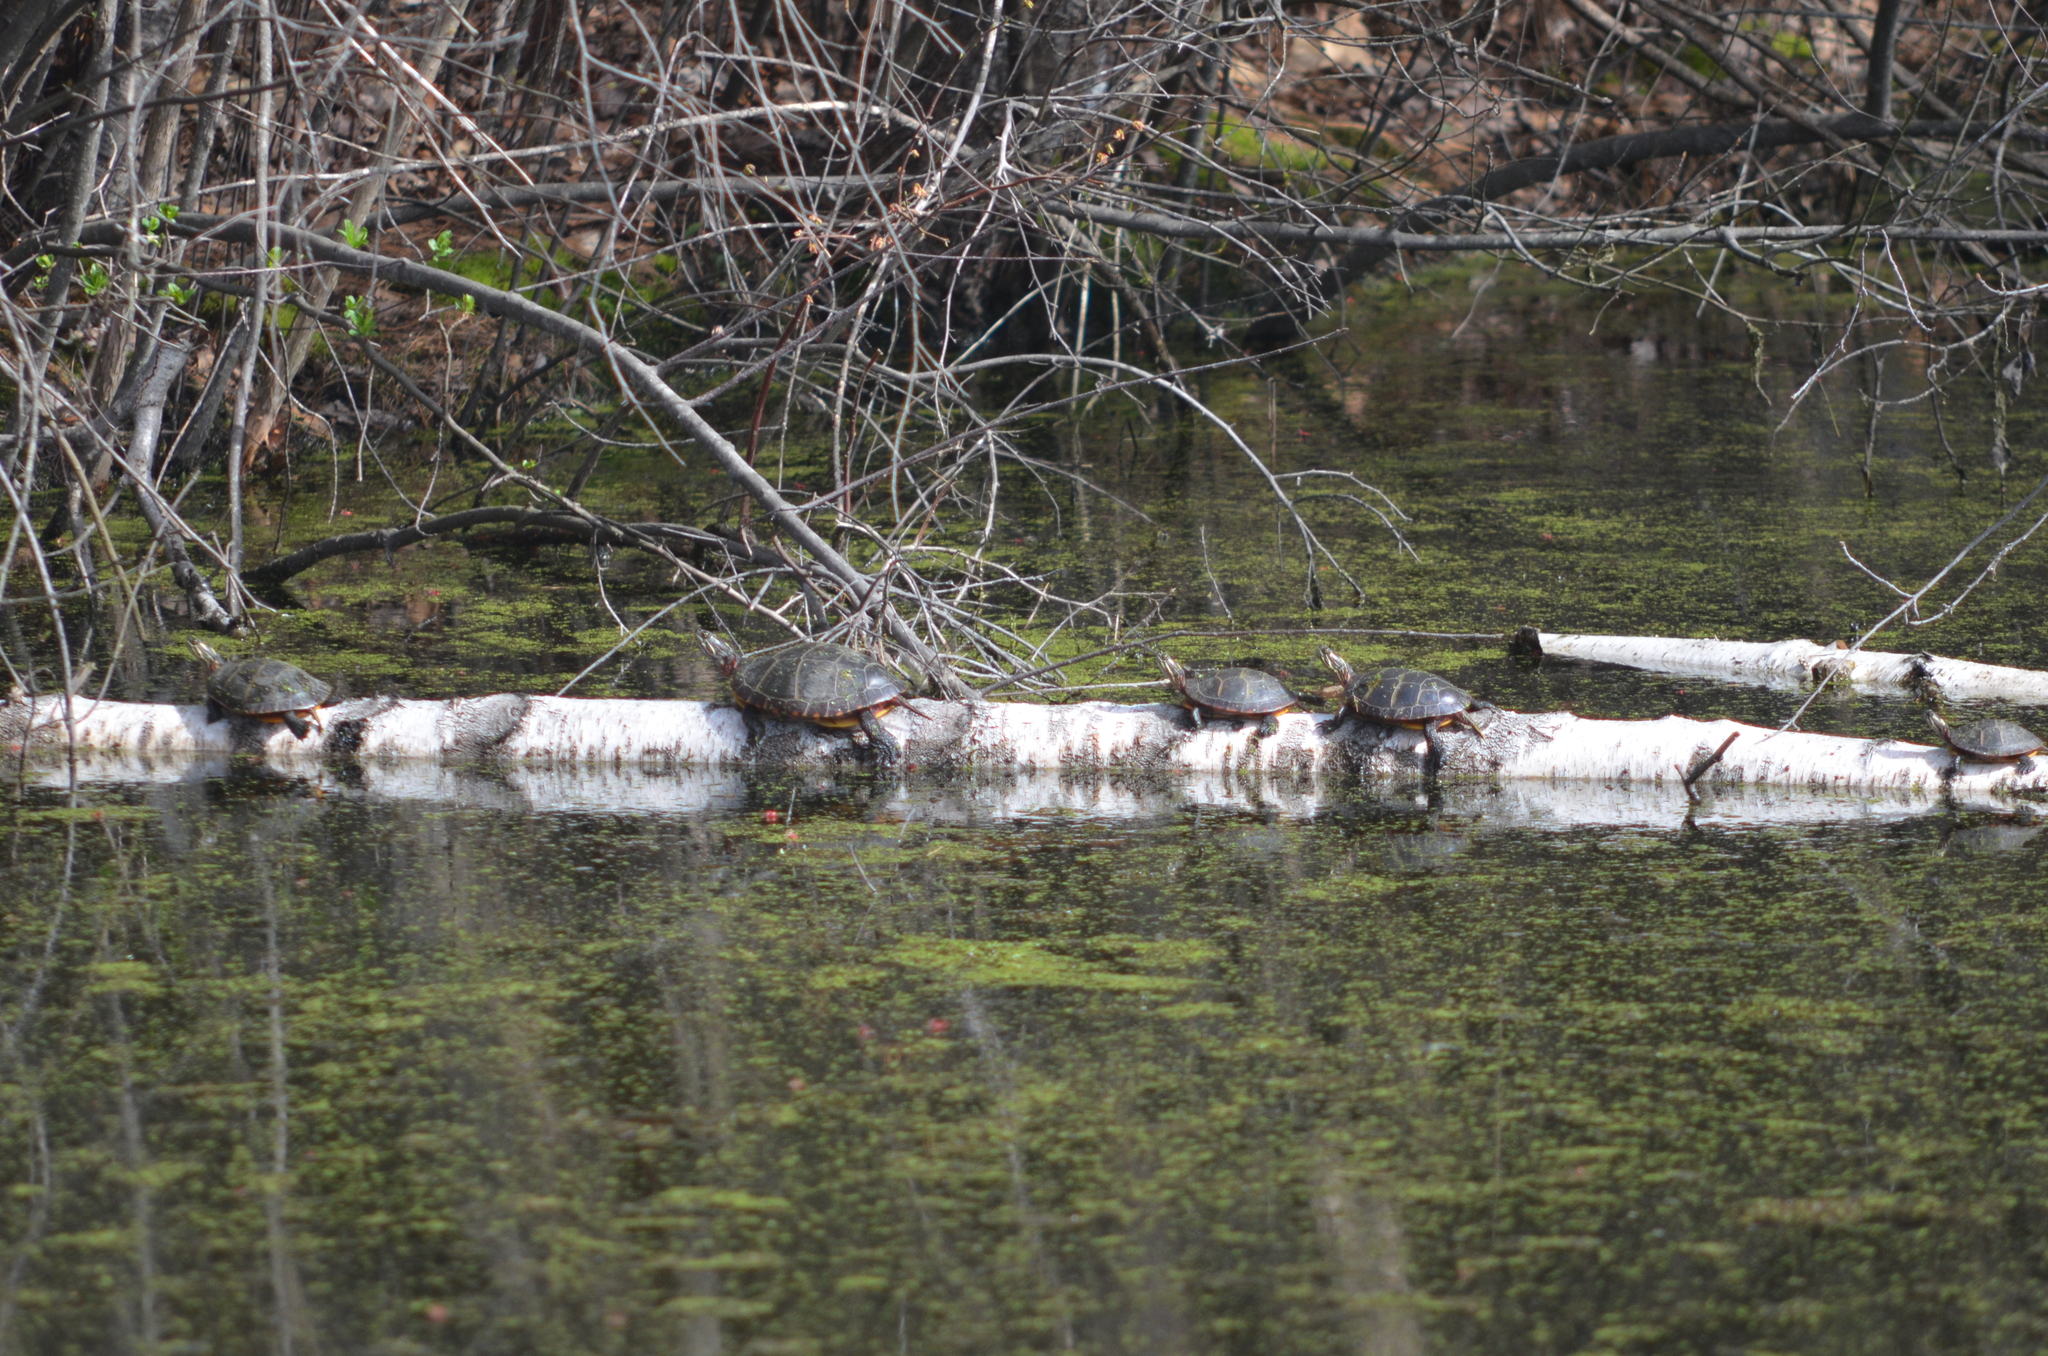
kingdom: Animalia
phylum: Chordata
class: Testudines
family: Emydidae
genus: Chrysemys
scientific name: Chrysemys picta
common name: Painted turtle
